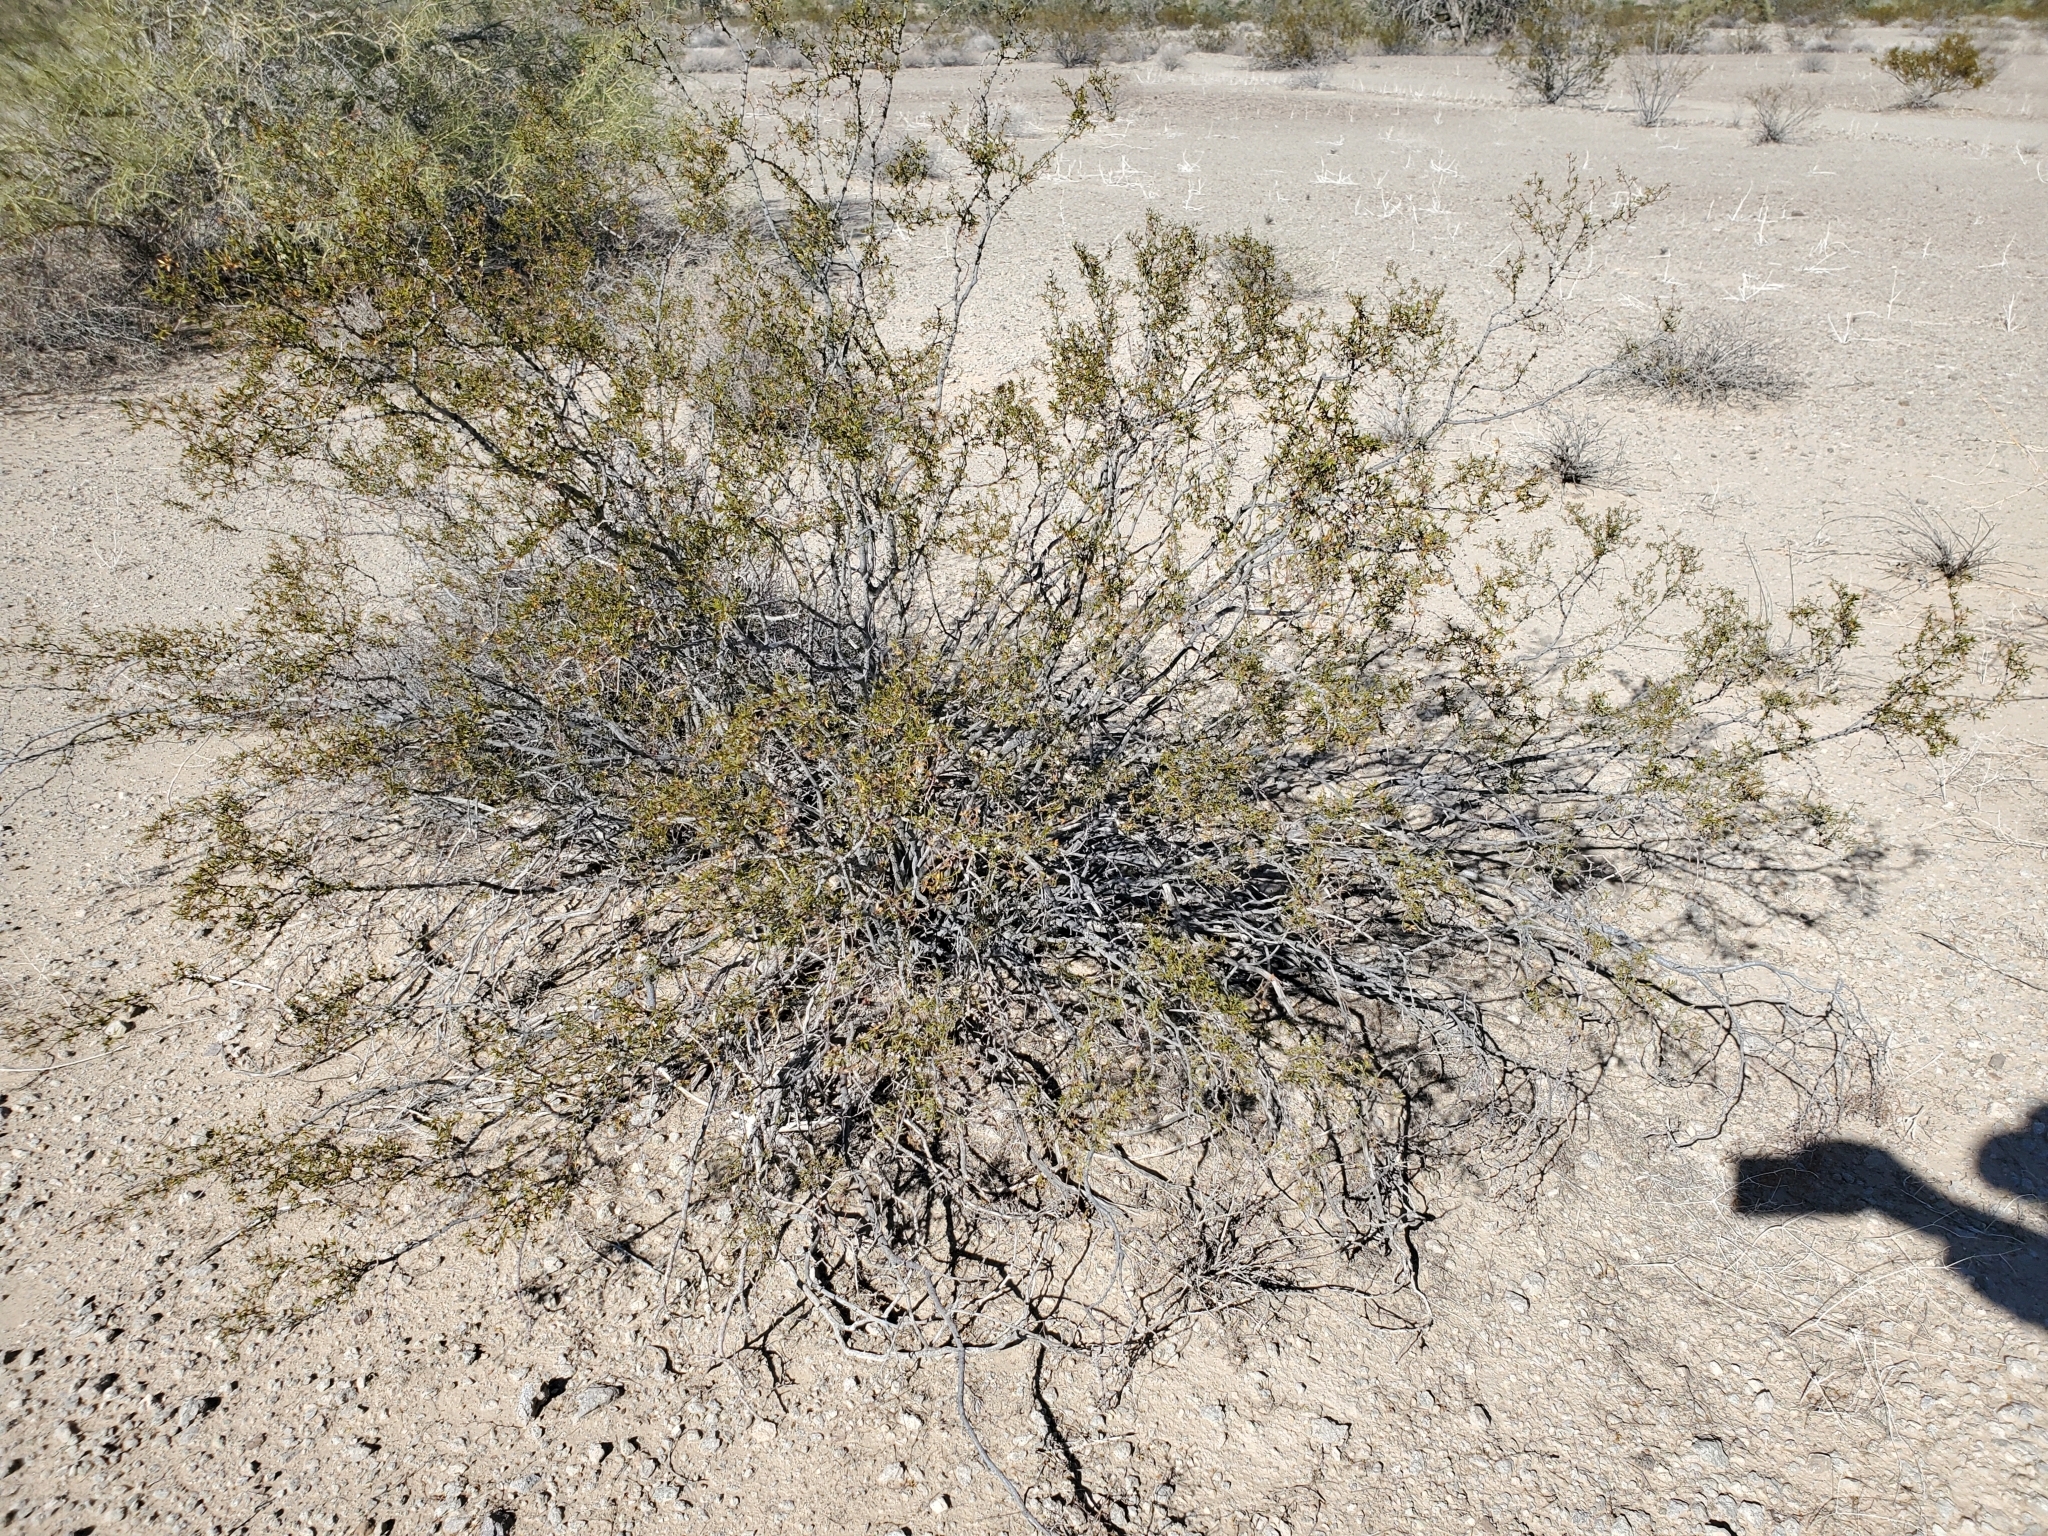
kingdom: Plantae
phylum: Tracheophyta
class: Magnoliopsida
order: Zygophyllales
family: Zygophyllaceae
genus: Larrea
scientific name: Larrea tridentata
